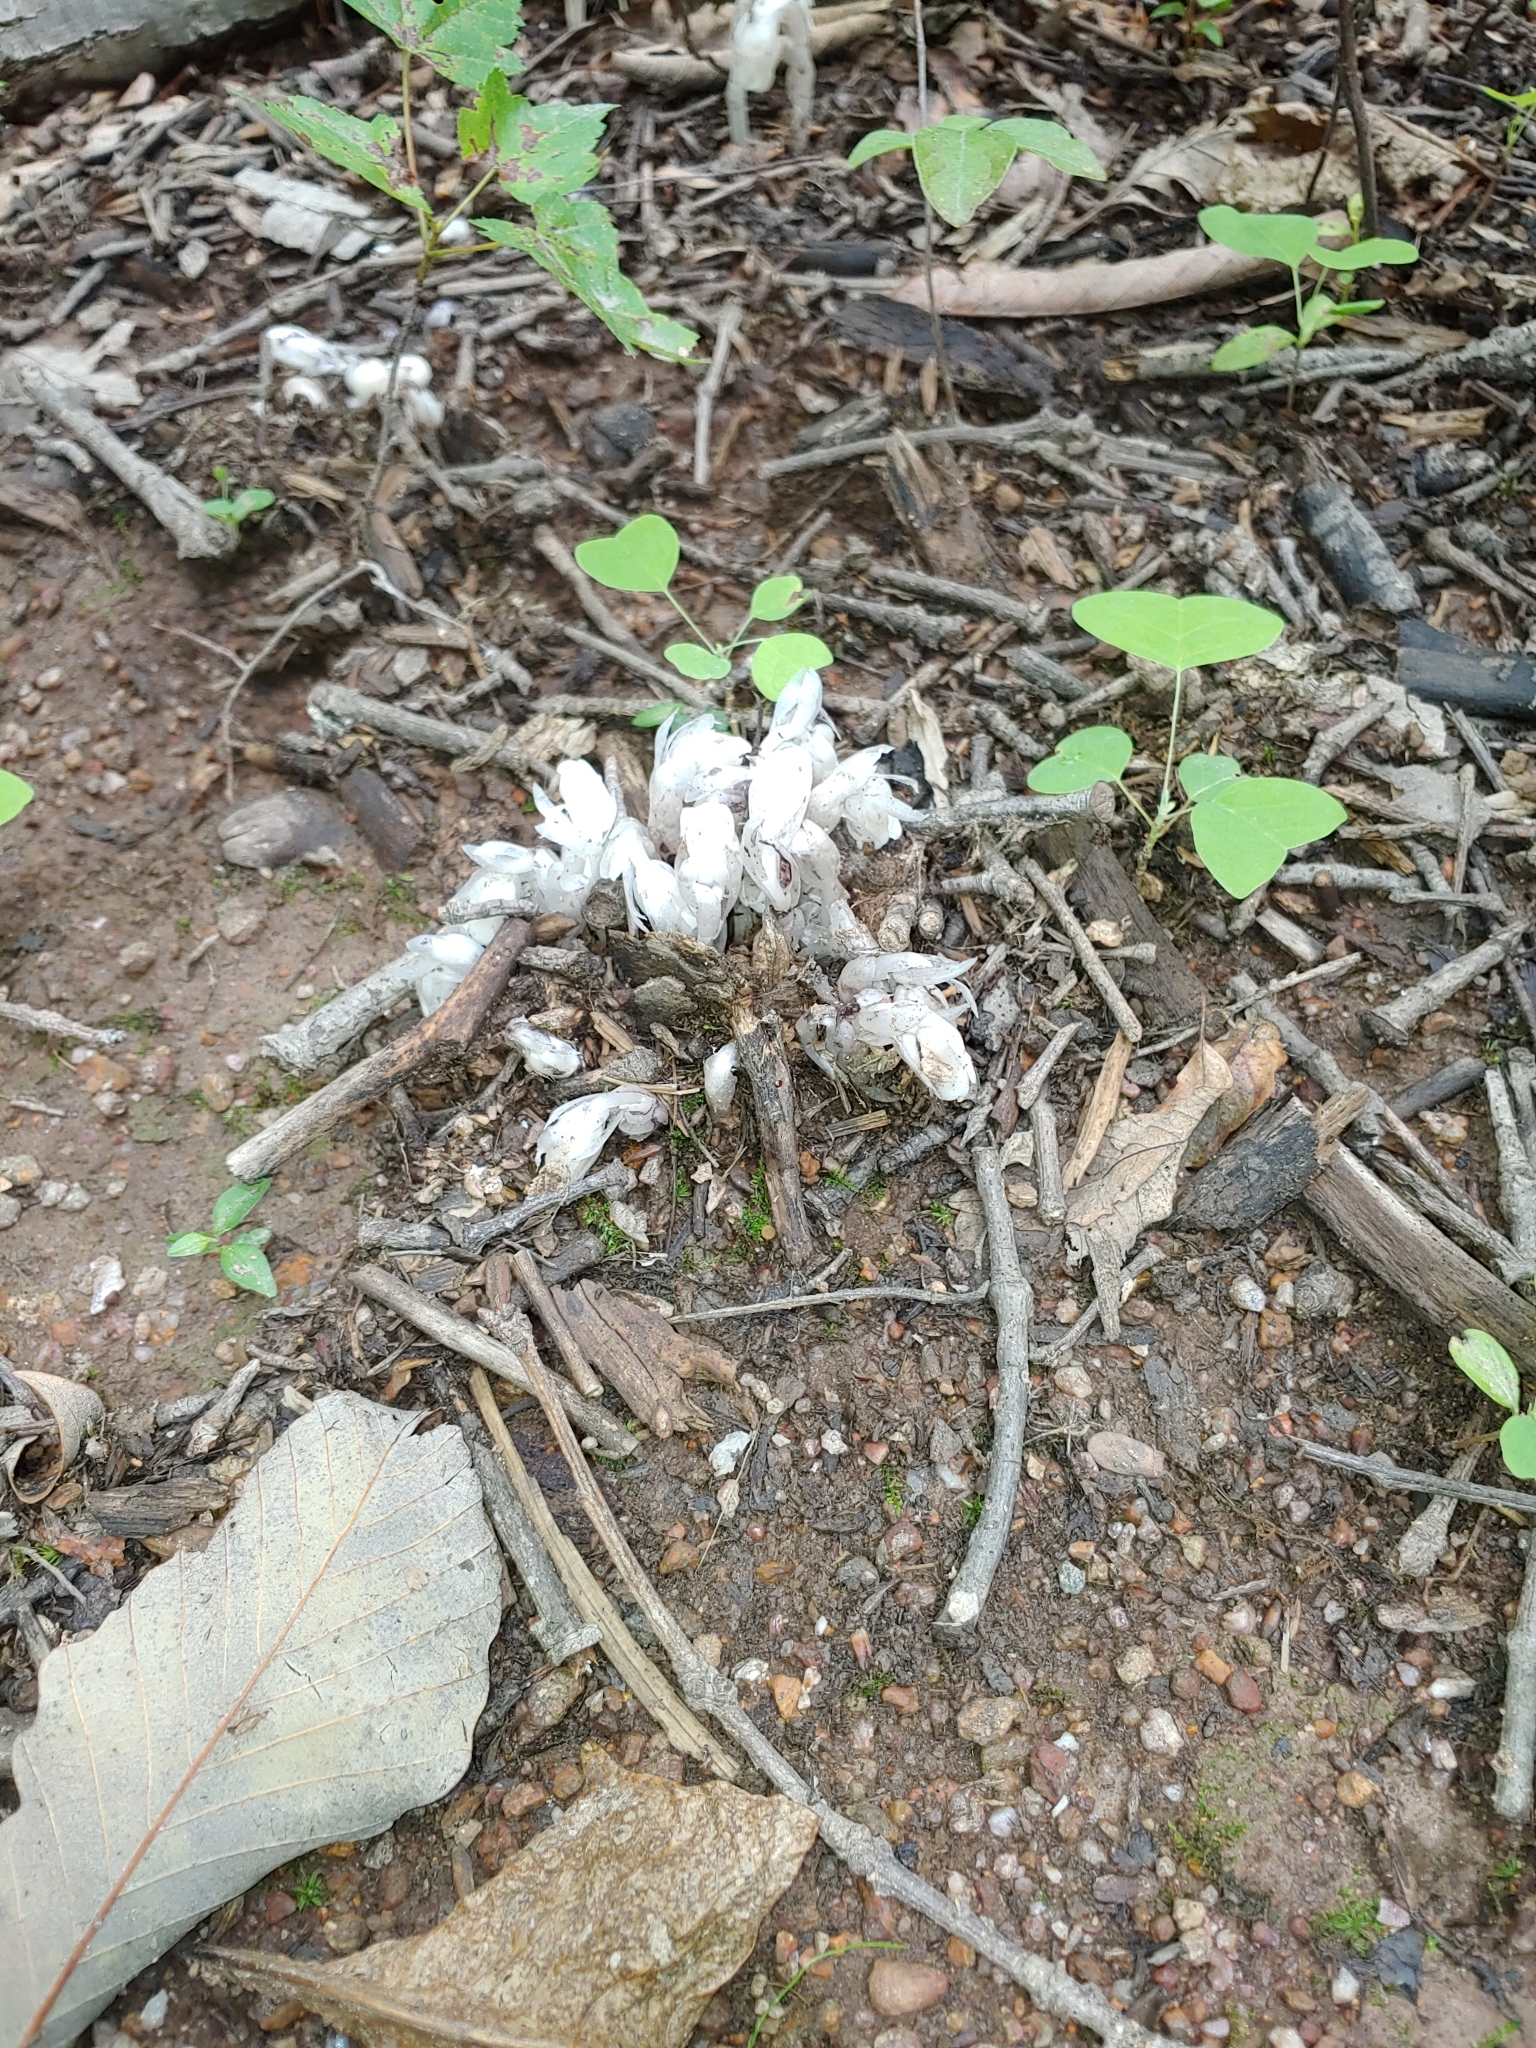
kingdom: Plantae
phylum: Tracheophyta
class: Magnoliopsida
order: Ericales
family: Ericaceae
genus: Monotropa
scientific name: Monotropa uniflora
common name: Convulsion root
